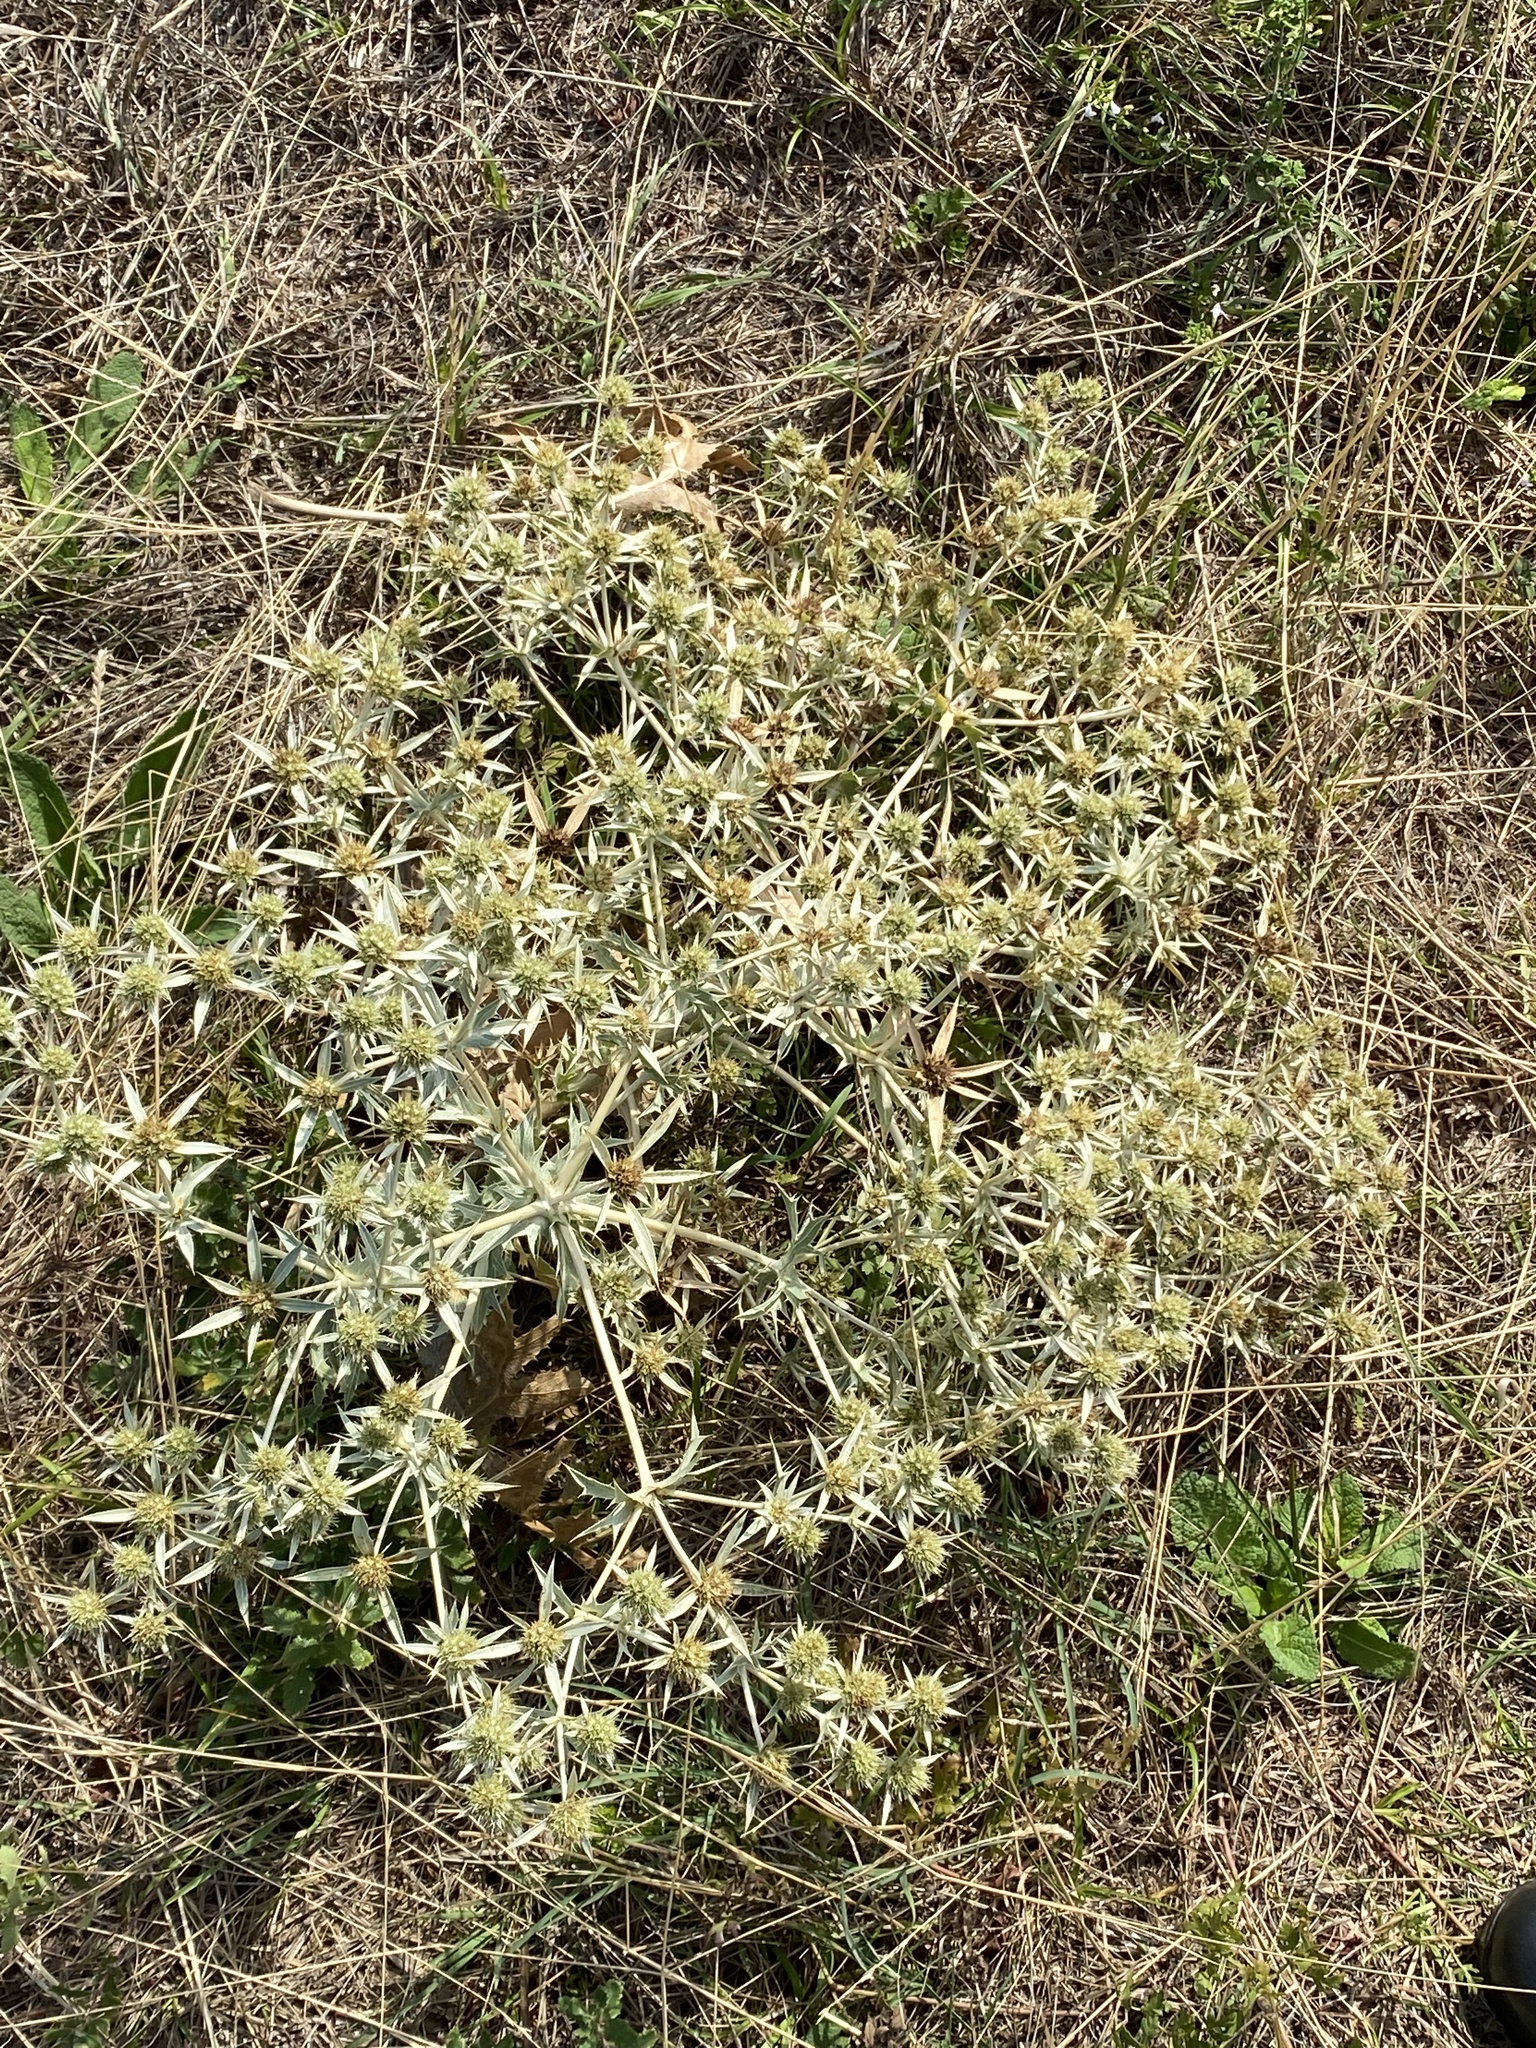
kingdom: Plantae
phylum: Tracheophyta
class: Magnoliopsida
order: Apiales
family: Apiaceae
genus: Eryngium
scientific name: Eryngium campestre
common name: Field eryngo
